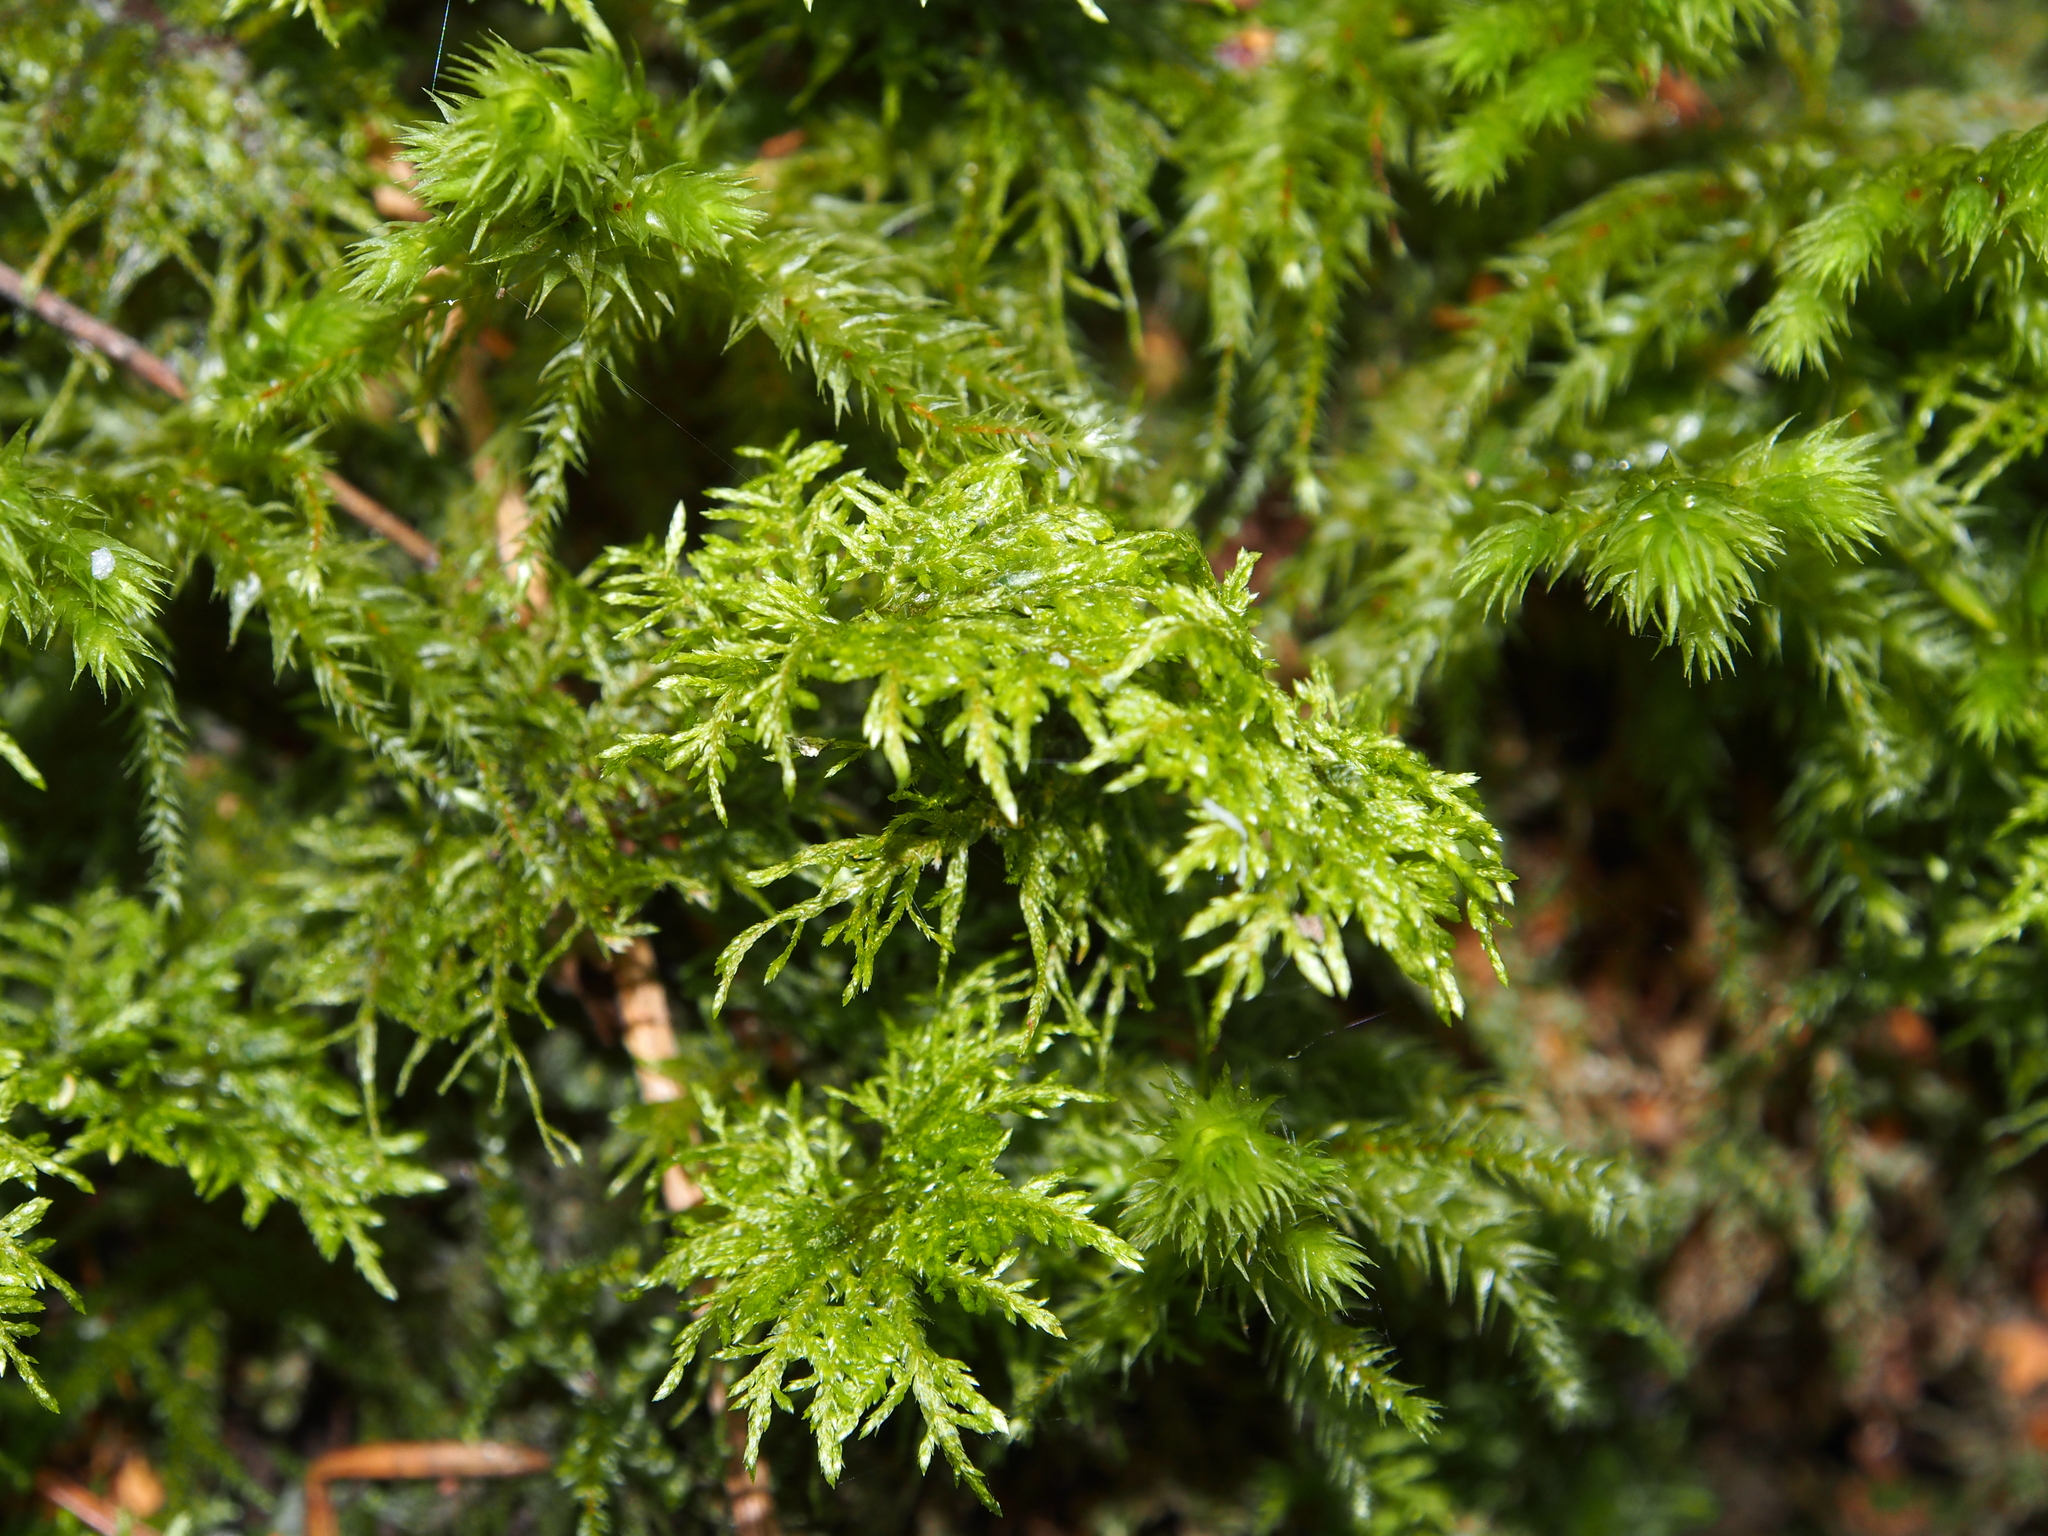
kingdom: Plantae
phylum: Bryophyta
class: Bryopsida
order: Hypnales
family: Hylocomiaceae
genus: Hylocomium
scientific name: Hylocomium splendens
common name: Stairstep moss
